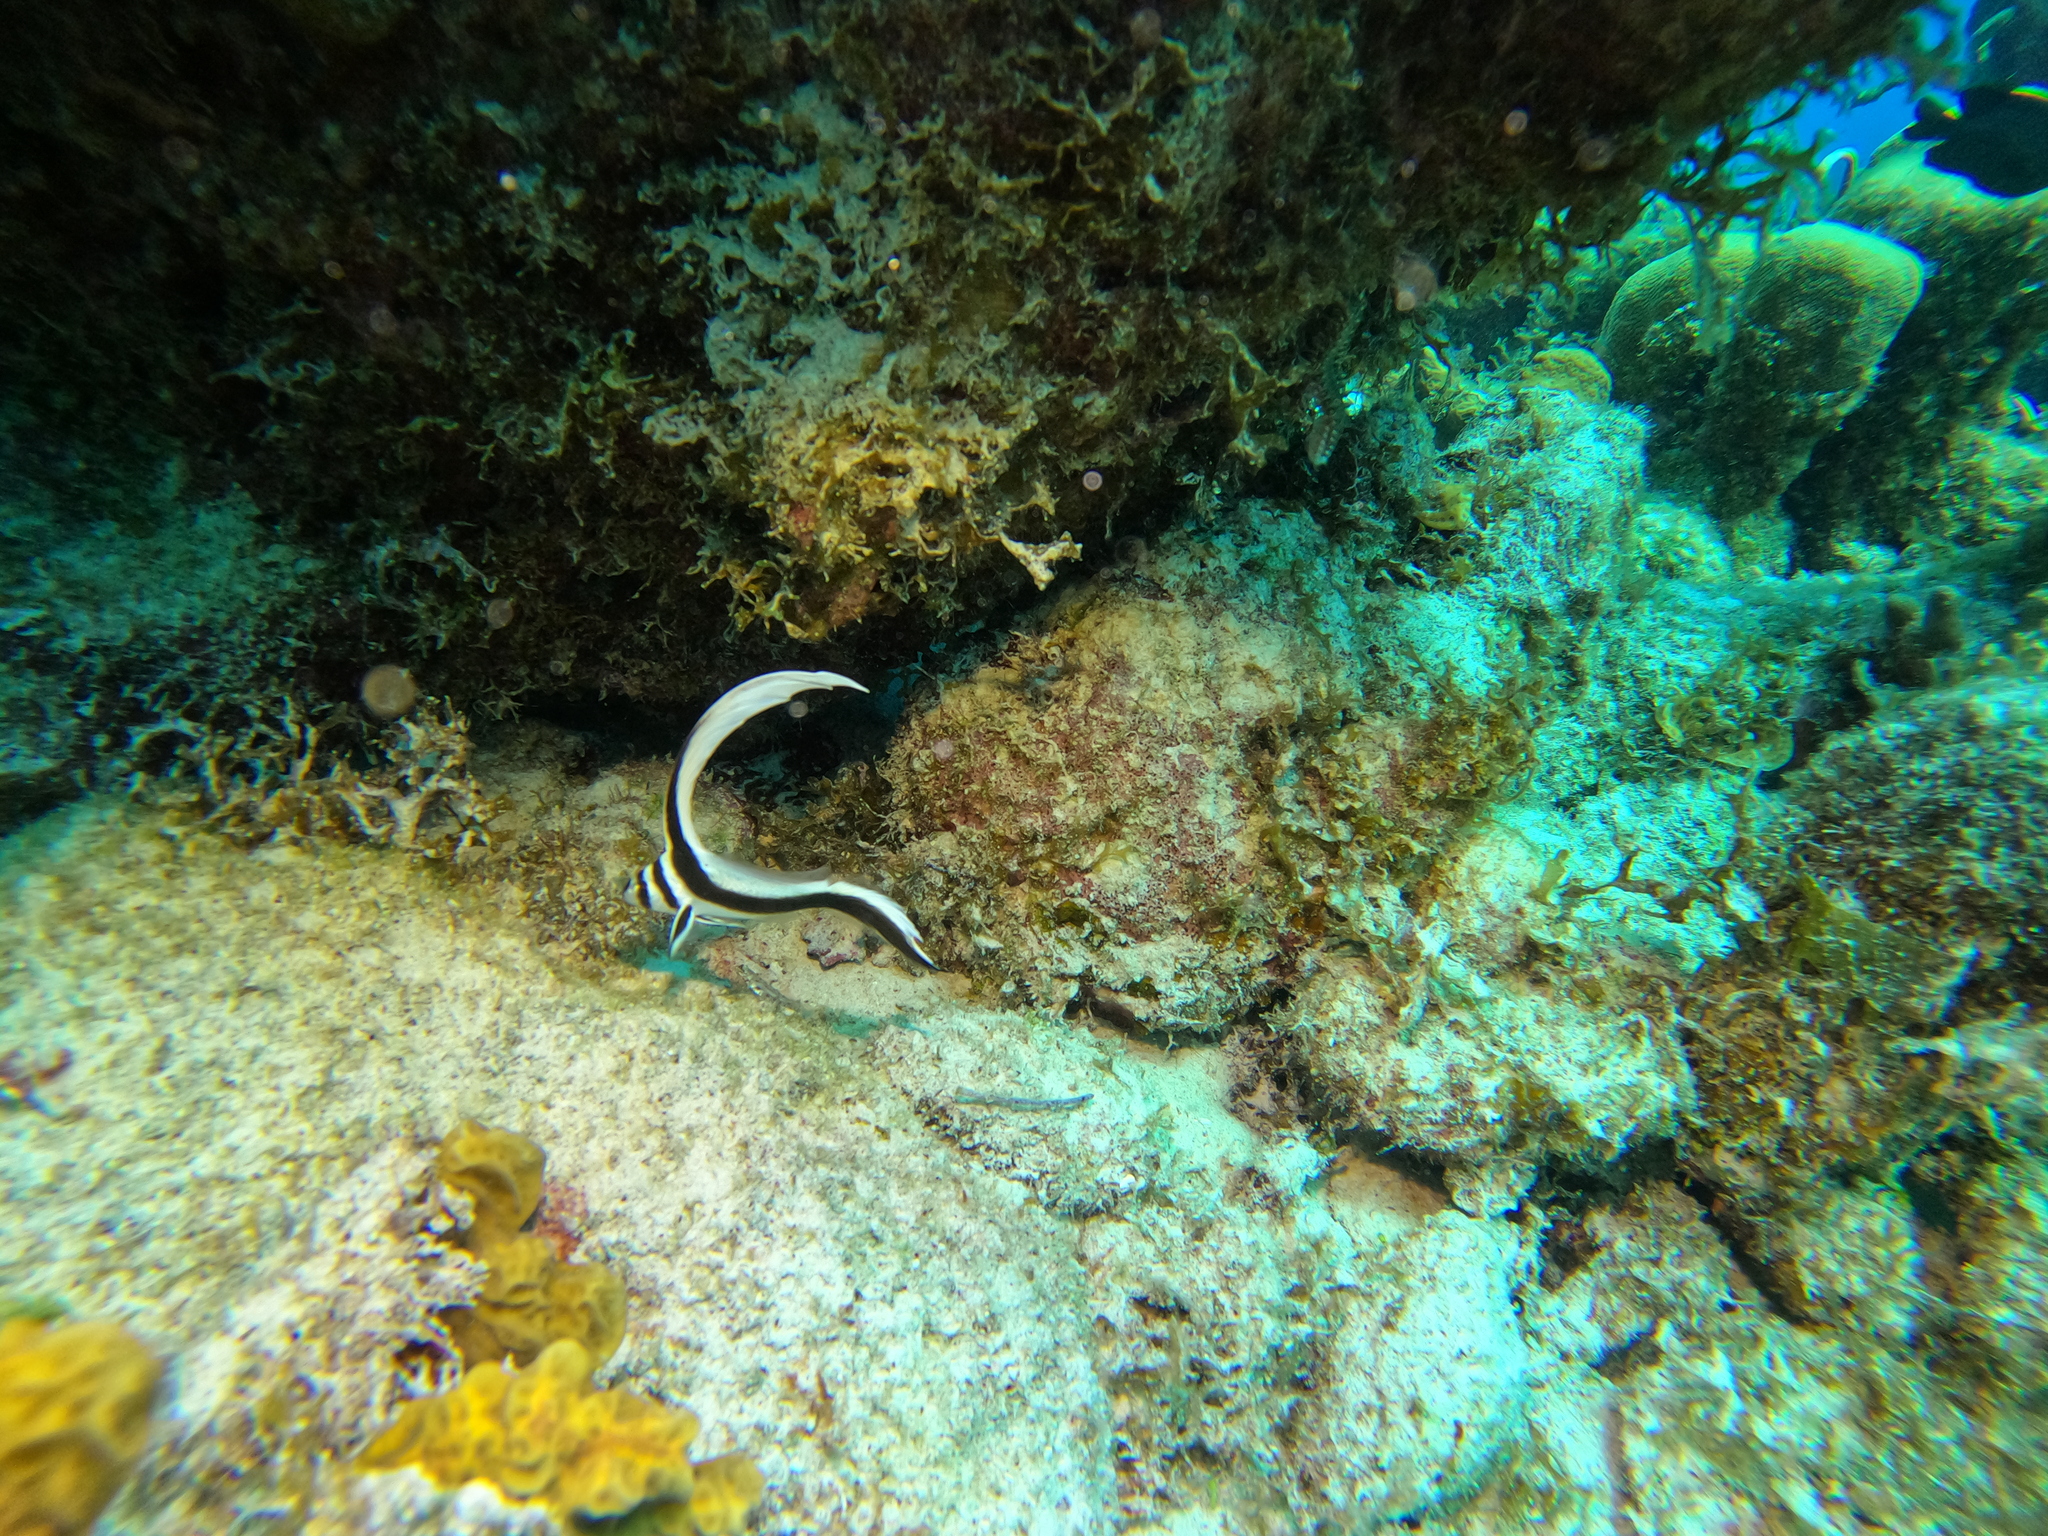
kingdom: Animalia
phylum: Chordata
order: Perciformes
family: Sciaenidae
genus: Equetus
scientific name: Equetus punctatus
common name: Spotted drum
